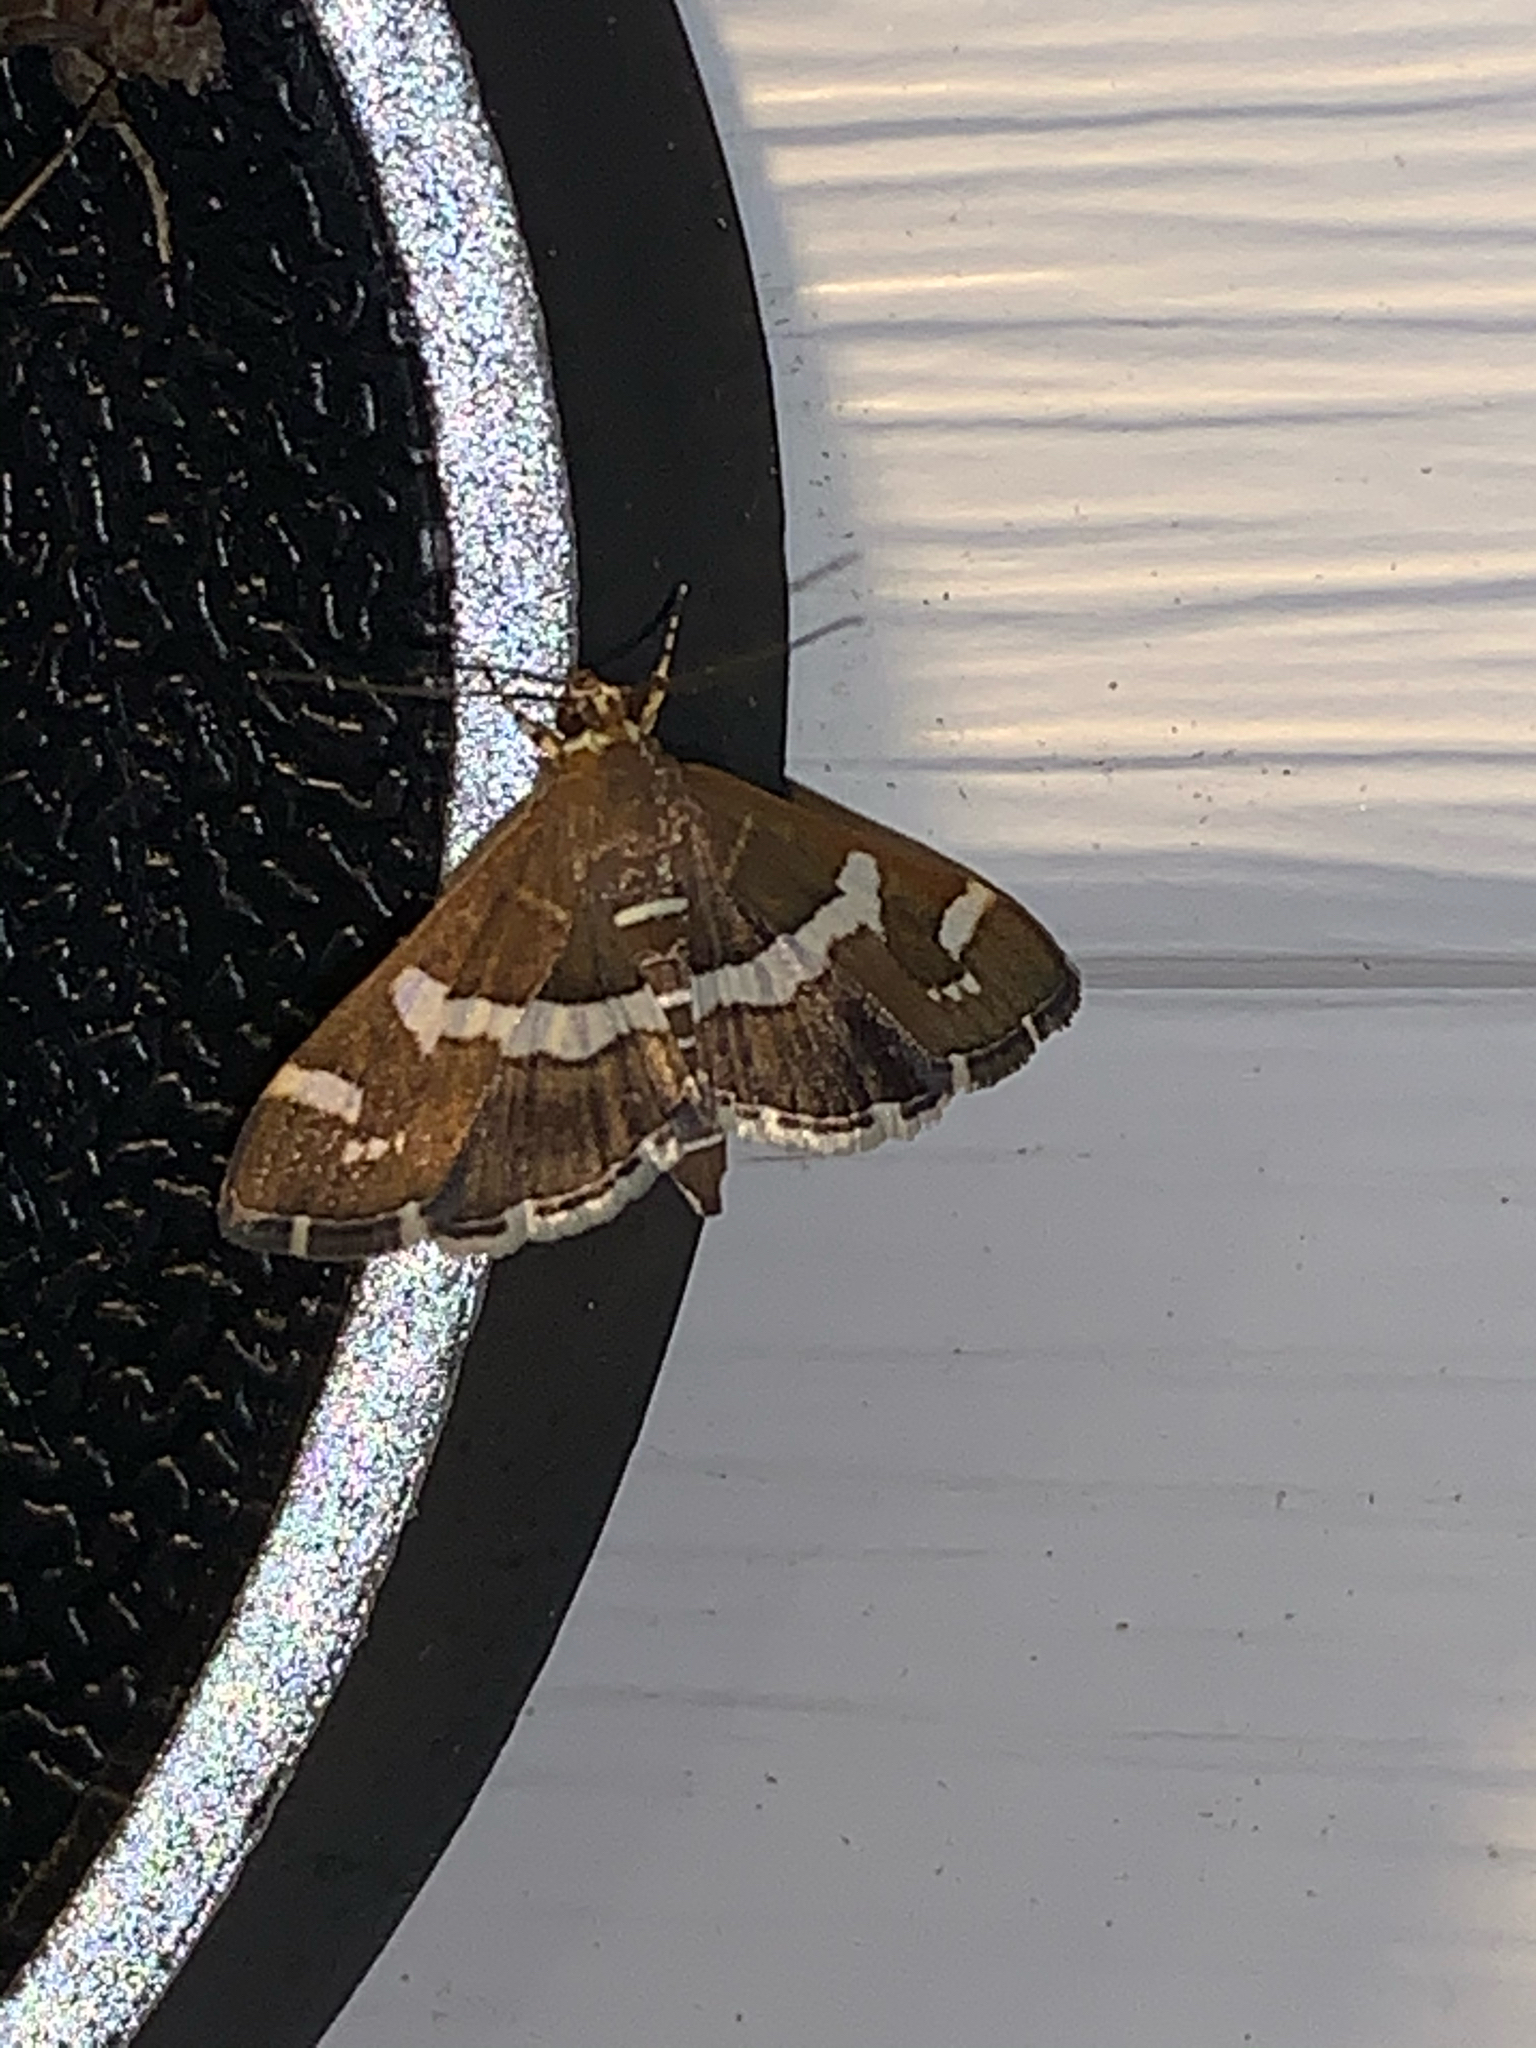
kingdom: Animalia
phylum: Arthropoda
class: Insecta
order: Lepidoptera
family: Crambidae
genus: Spoladea
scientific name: Spoladea recurvalis
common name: Beet webworm moth
